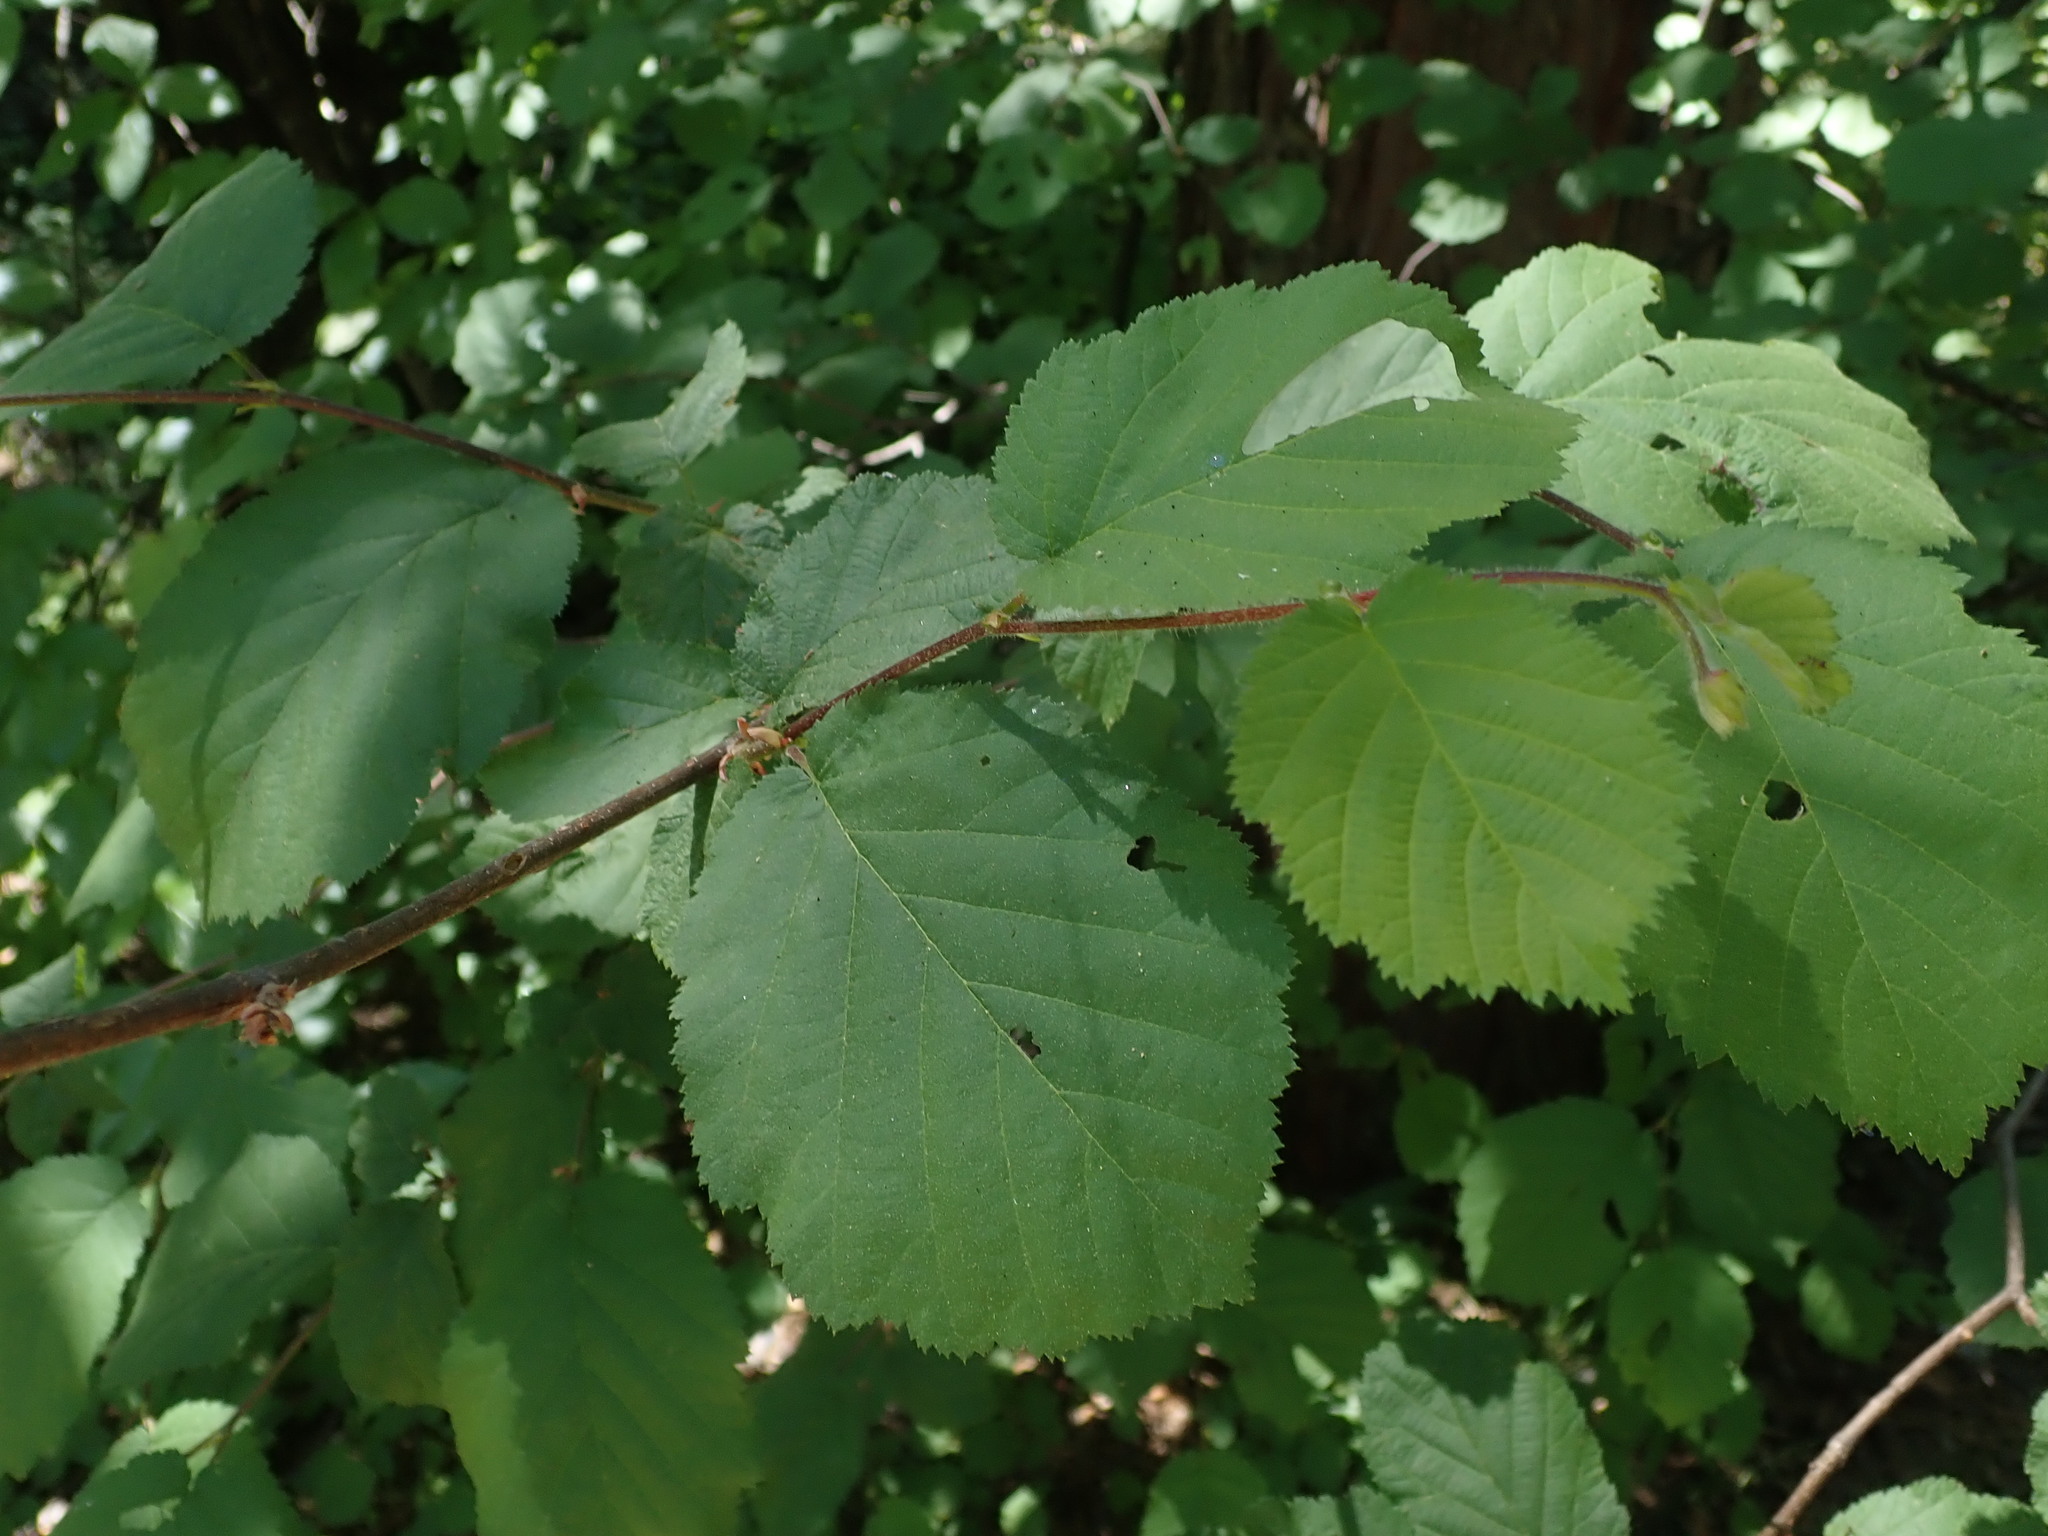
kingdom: Plantae
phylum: Tracheophyta
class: Magnoliopsida
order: Fagales
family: Betulaceae
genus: Corylus
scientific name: Corylus cornuta
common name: Beaked hazel
